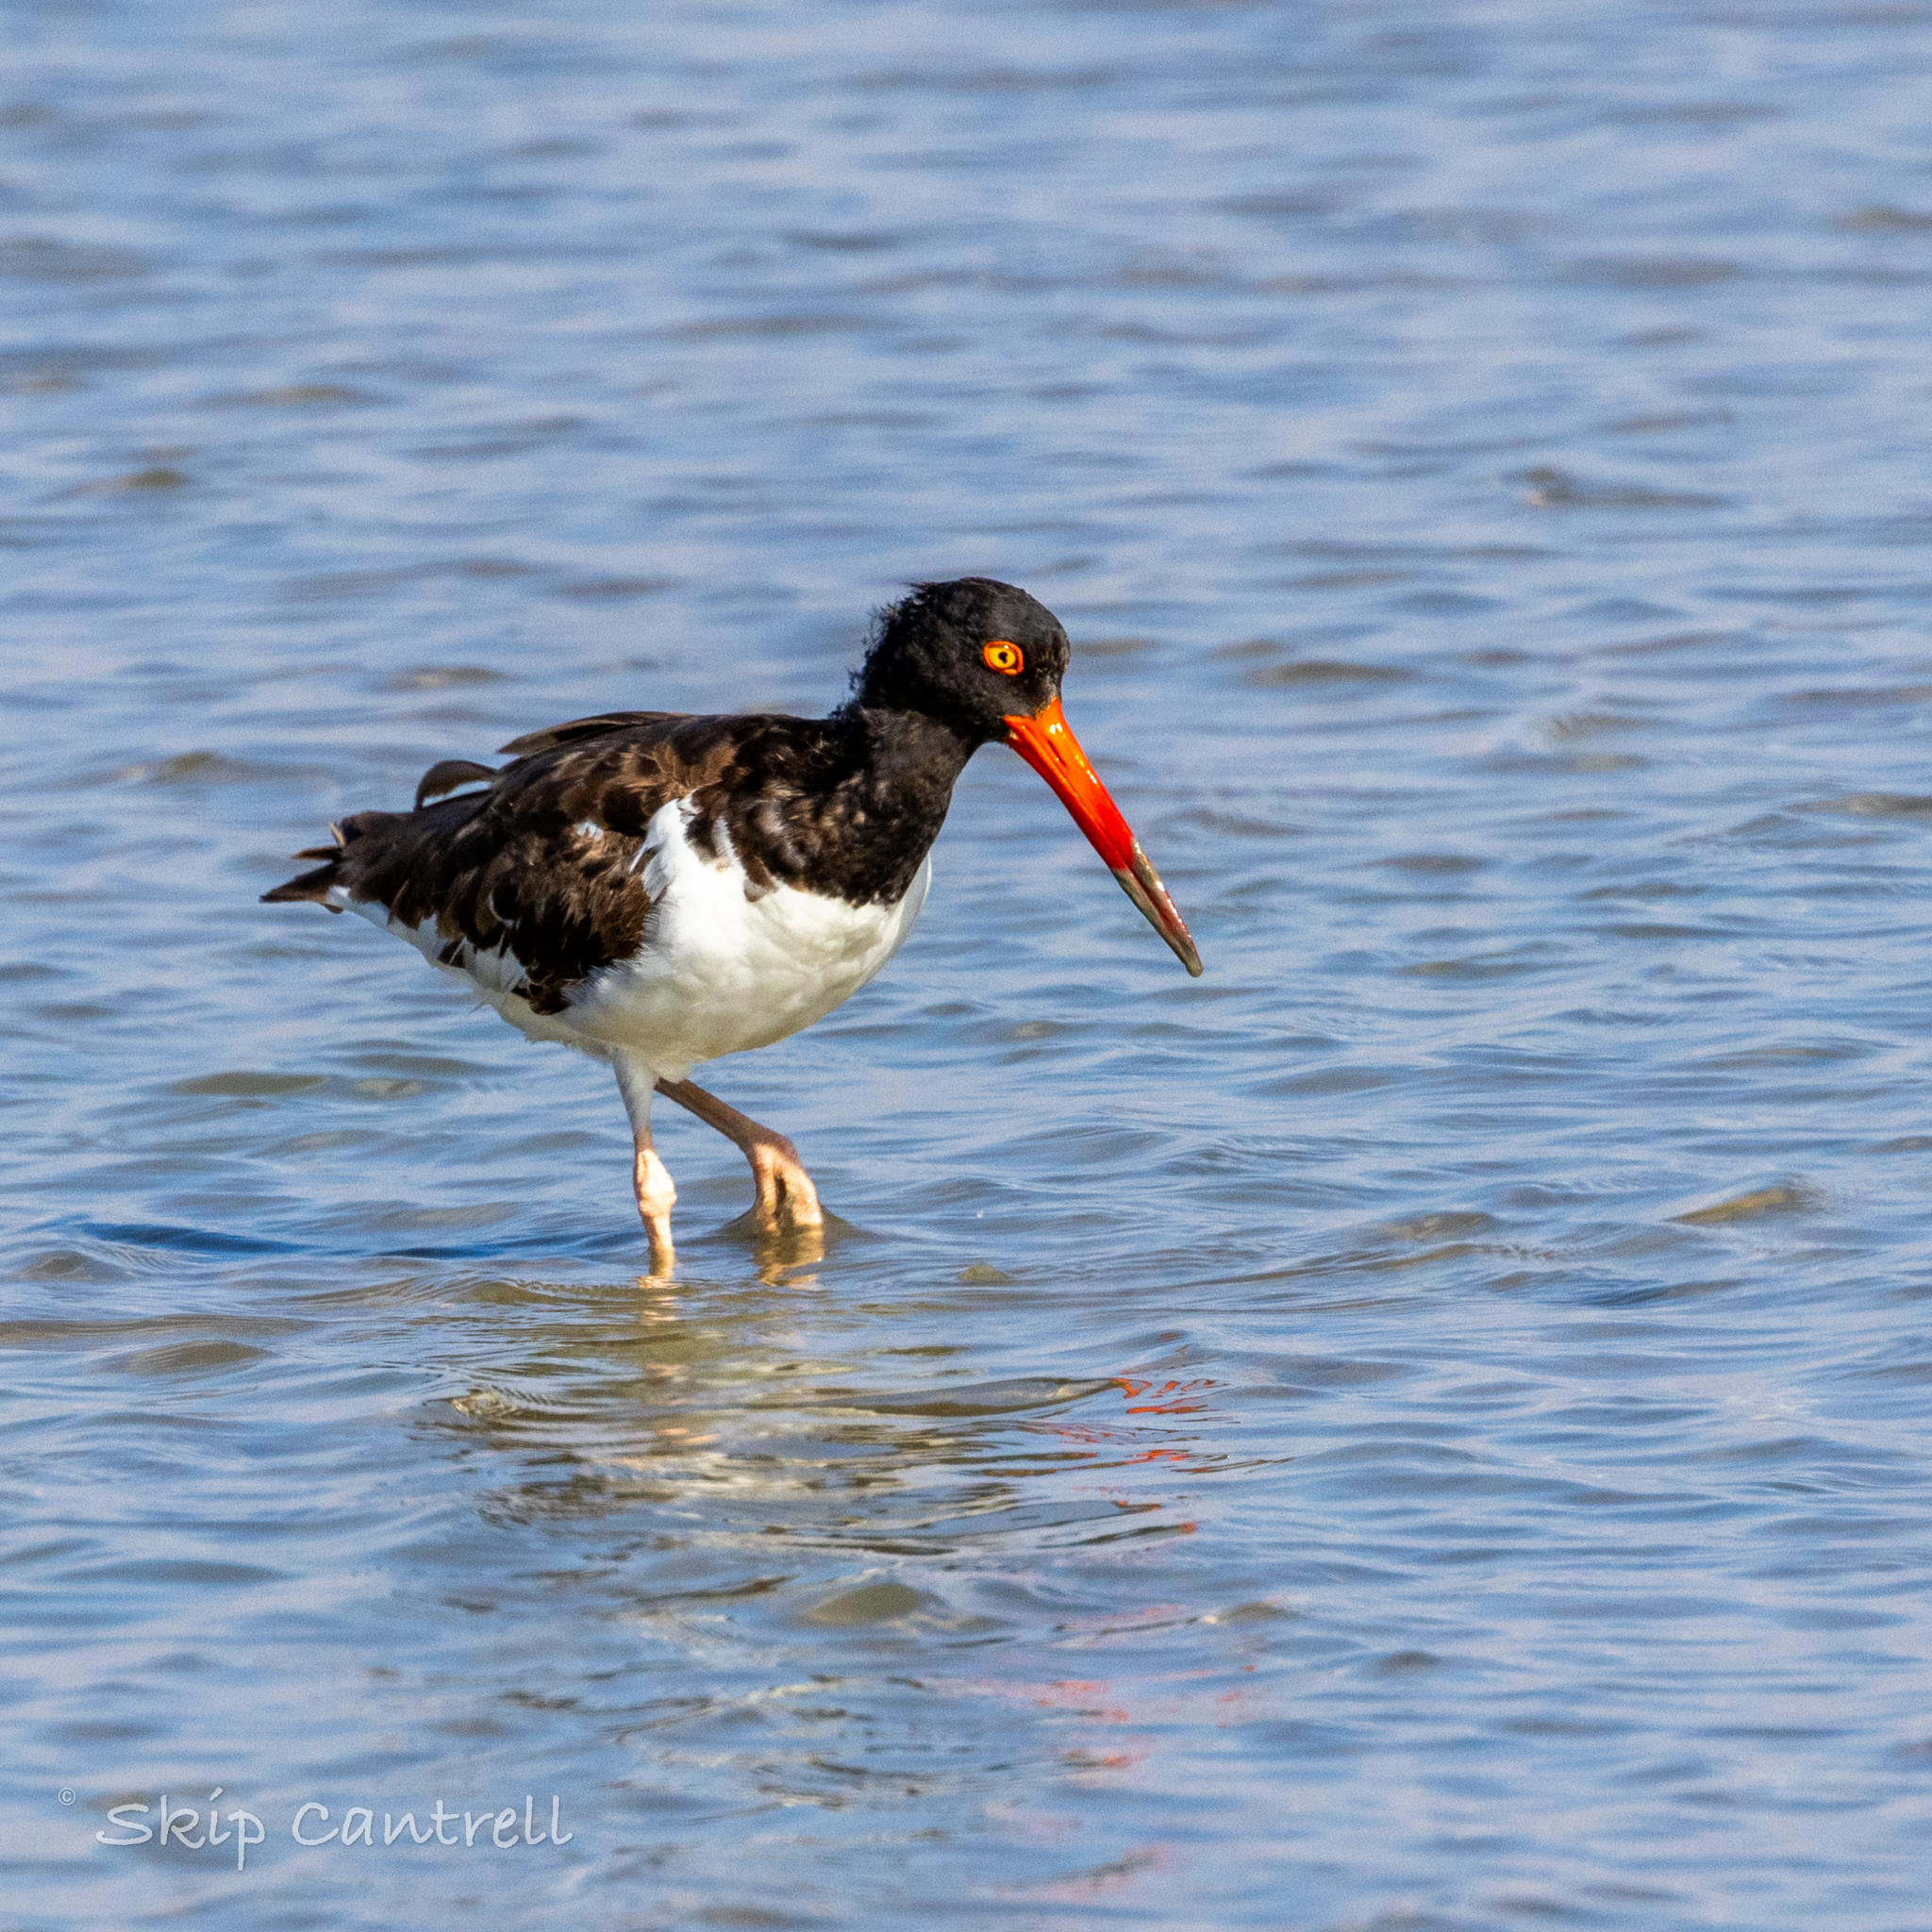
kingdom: Animalia
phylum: Chordata
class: Aves
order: Charadriiformes
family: Haematopodidae
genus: Haematopus
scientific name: Haematopus palliatus
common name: American oystercatcher
